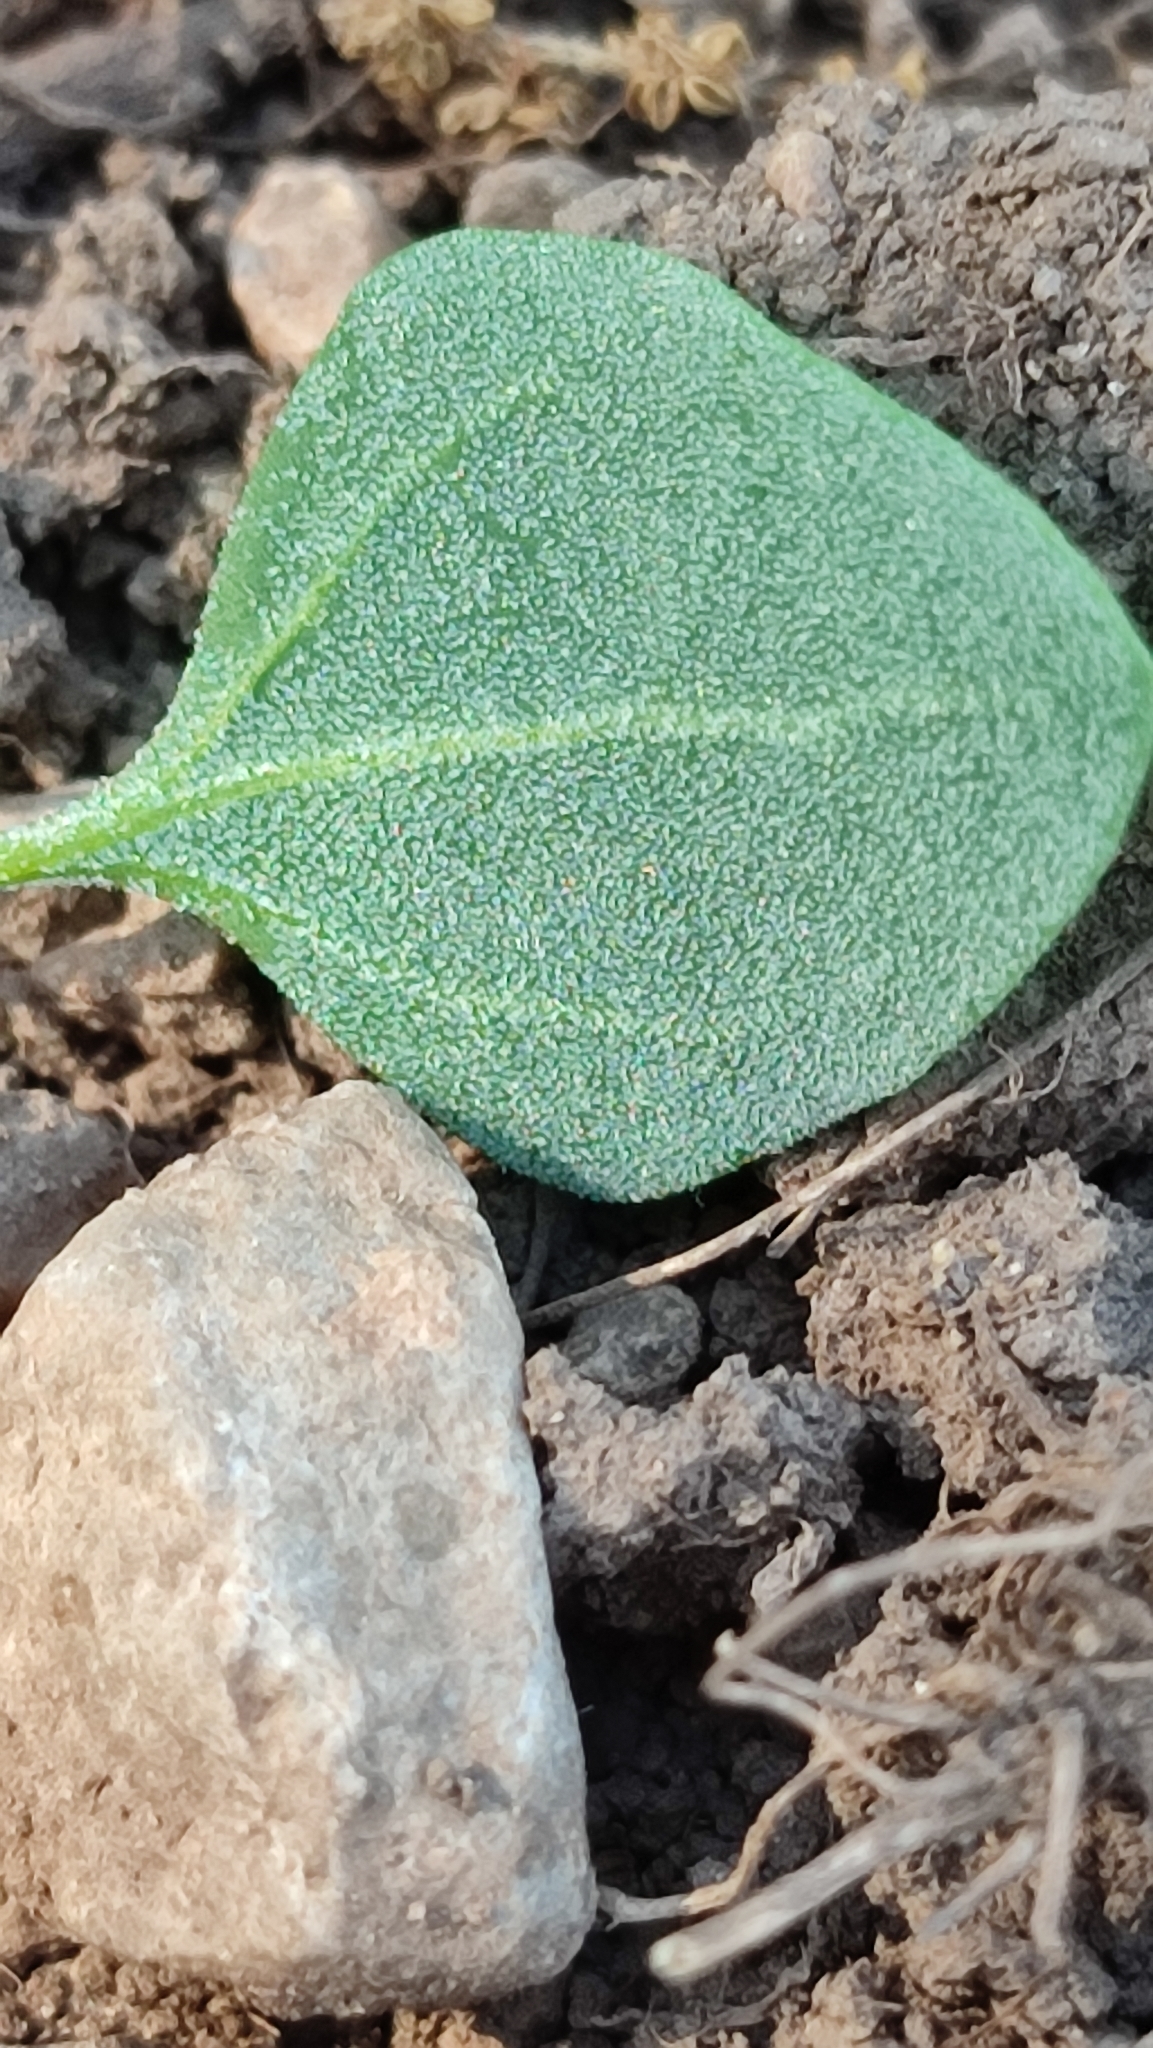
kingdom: Plantae
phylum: Tracheophyta
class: Magnoliopsida
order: Caryophyllales
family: Amaranthaceae
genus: Chenopodium
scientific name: Chenopodium vulvaria
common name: Stinking goosefoot
